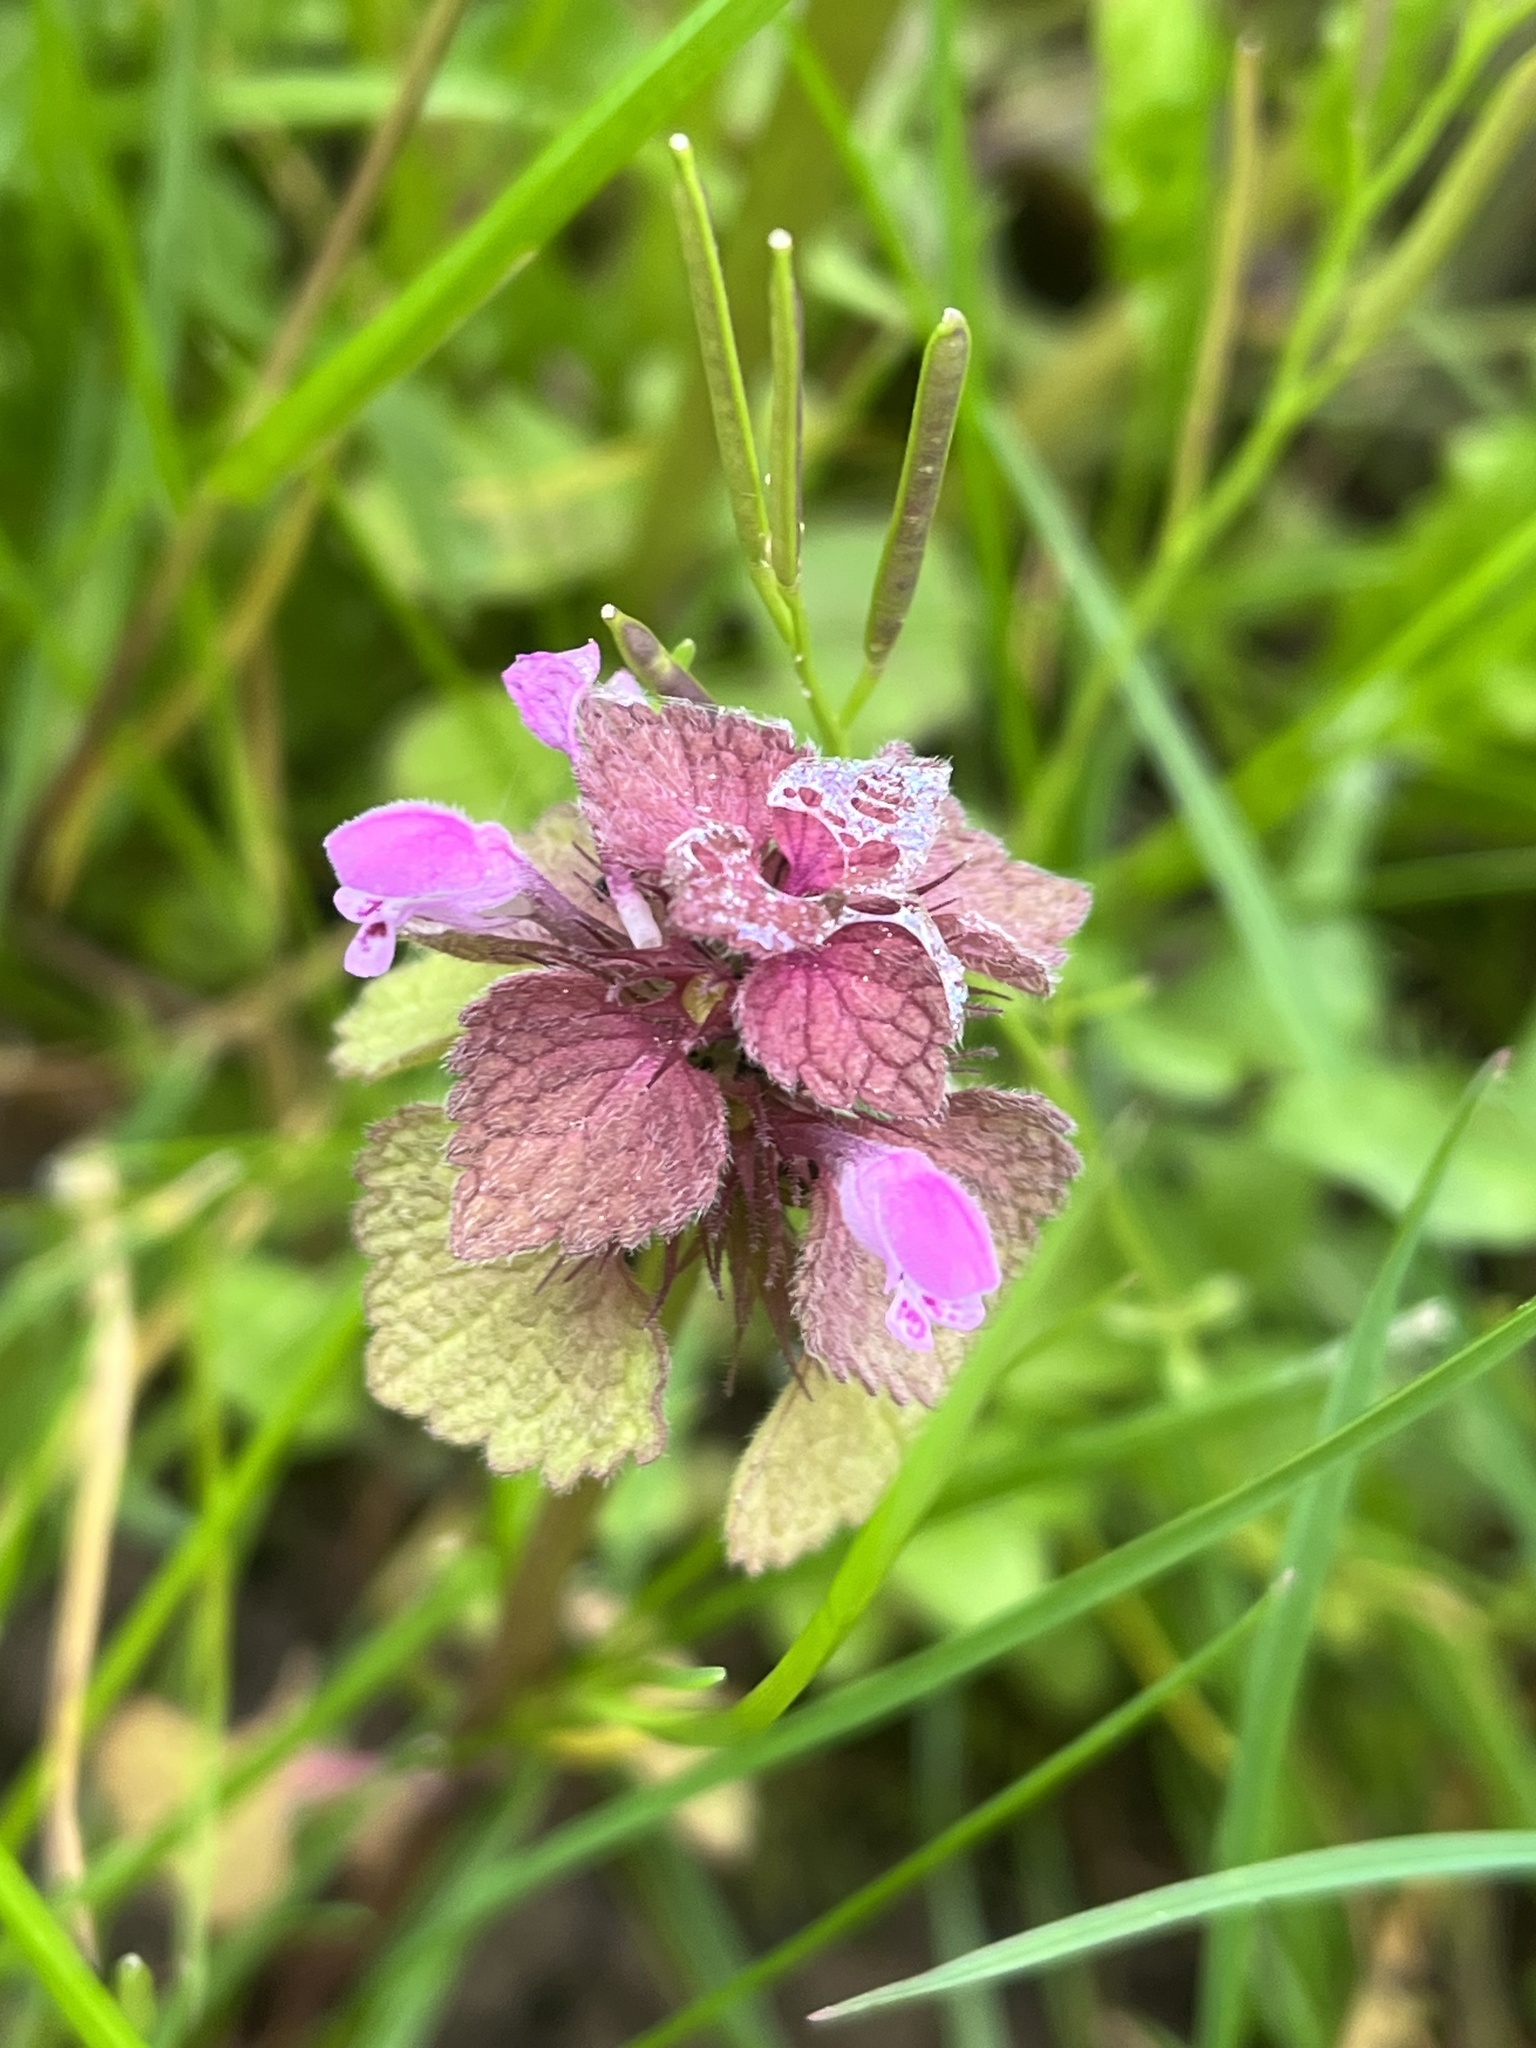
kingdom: Plantae
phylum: Tracheophyta
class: Magnoliopsida
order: Lamiales
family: Lamiaceae
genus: Lamium
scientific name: Lamium purpureum
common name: Red dead-nettle
